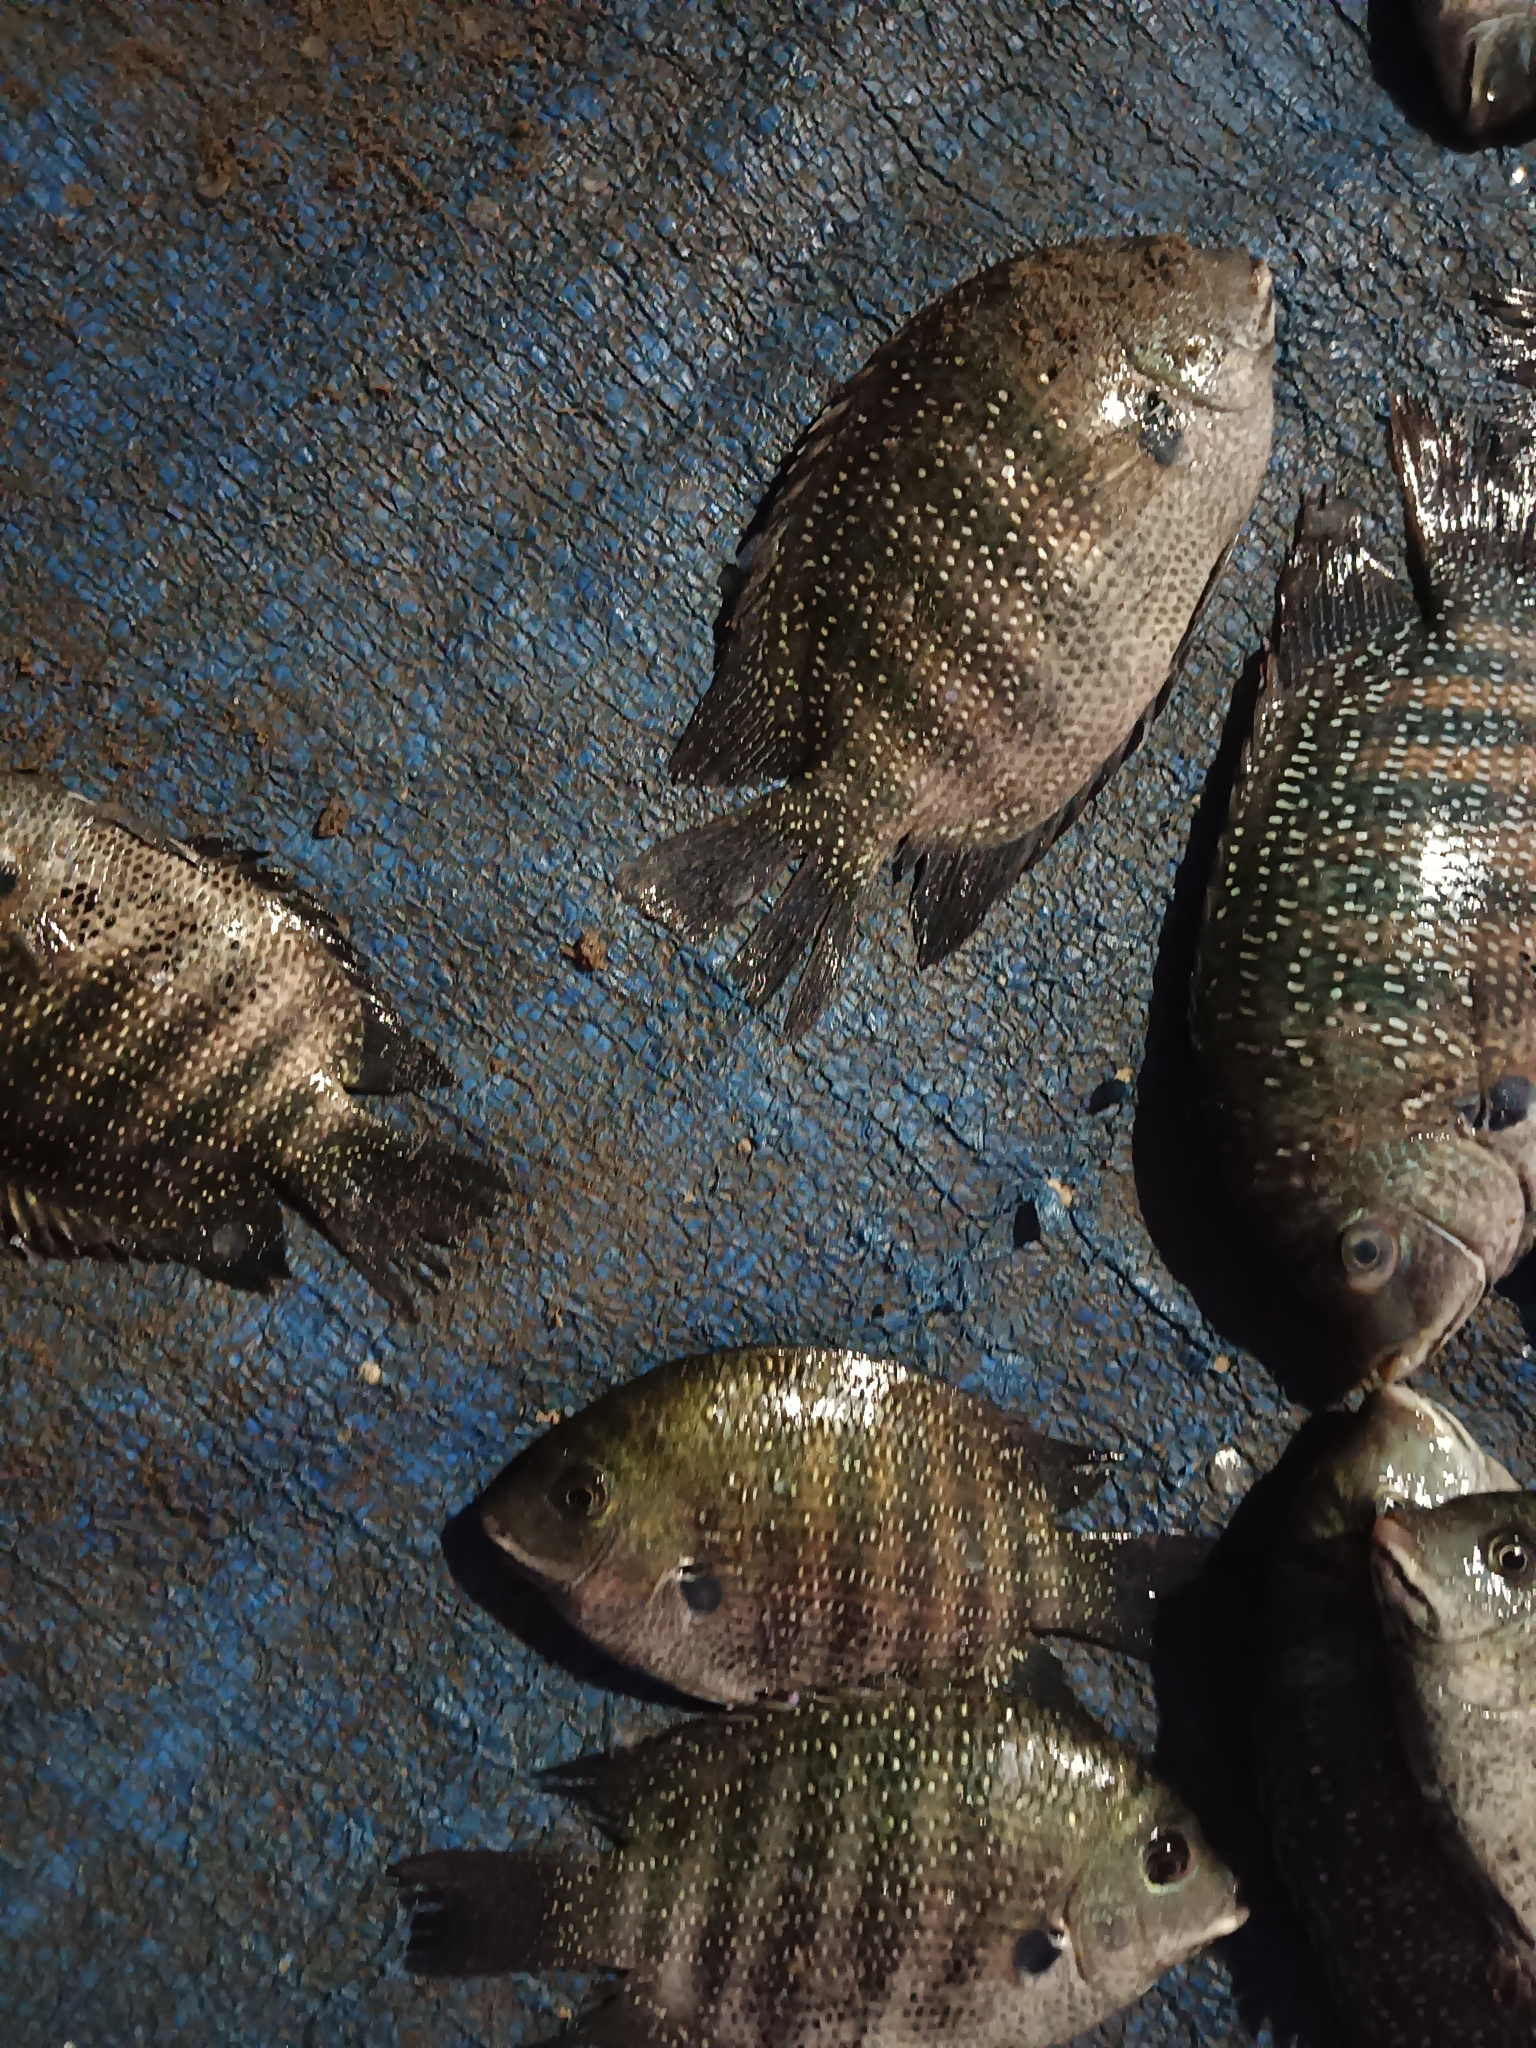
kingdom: Animalia
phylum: Chordata
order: Perciformes
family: Cichlidae
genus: Etroplus
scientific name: Etroplus suratensis
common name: Green chromide
